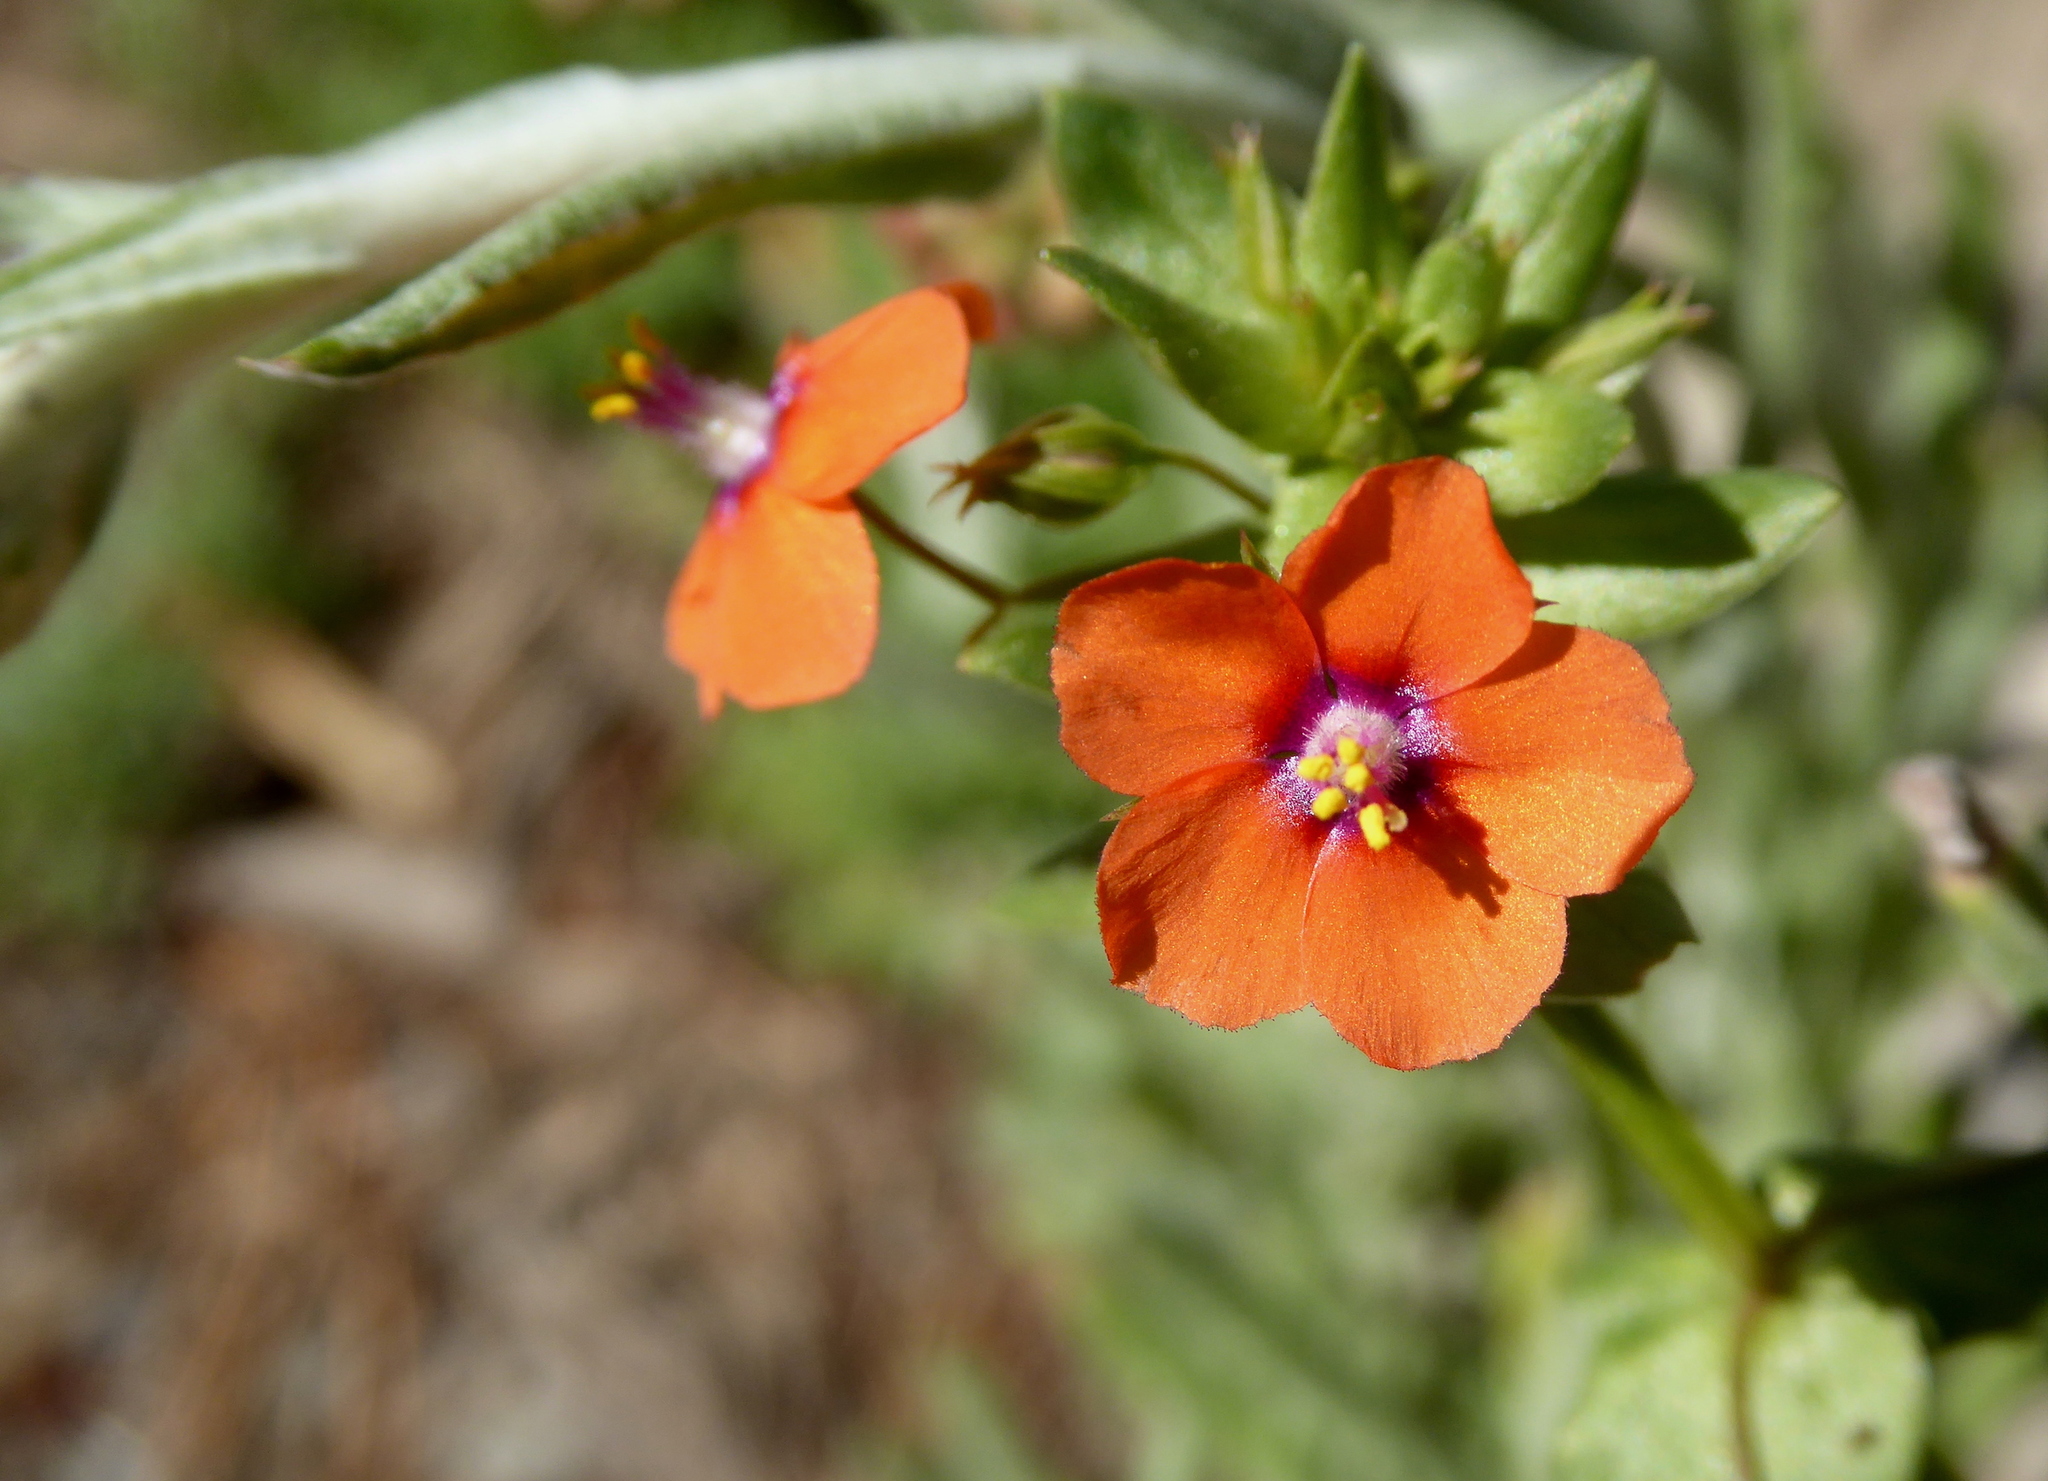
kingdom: Plantae
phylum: Tracheophyta
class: Magnoliopsida
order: Ericales
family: Primulaceae
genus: Lysimachia
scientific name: Lysimachia arvensis
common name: Scarlet pimpernel
